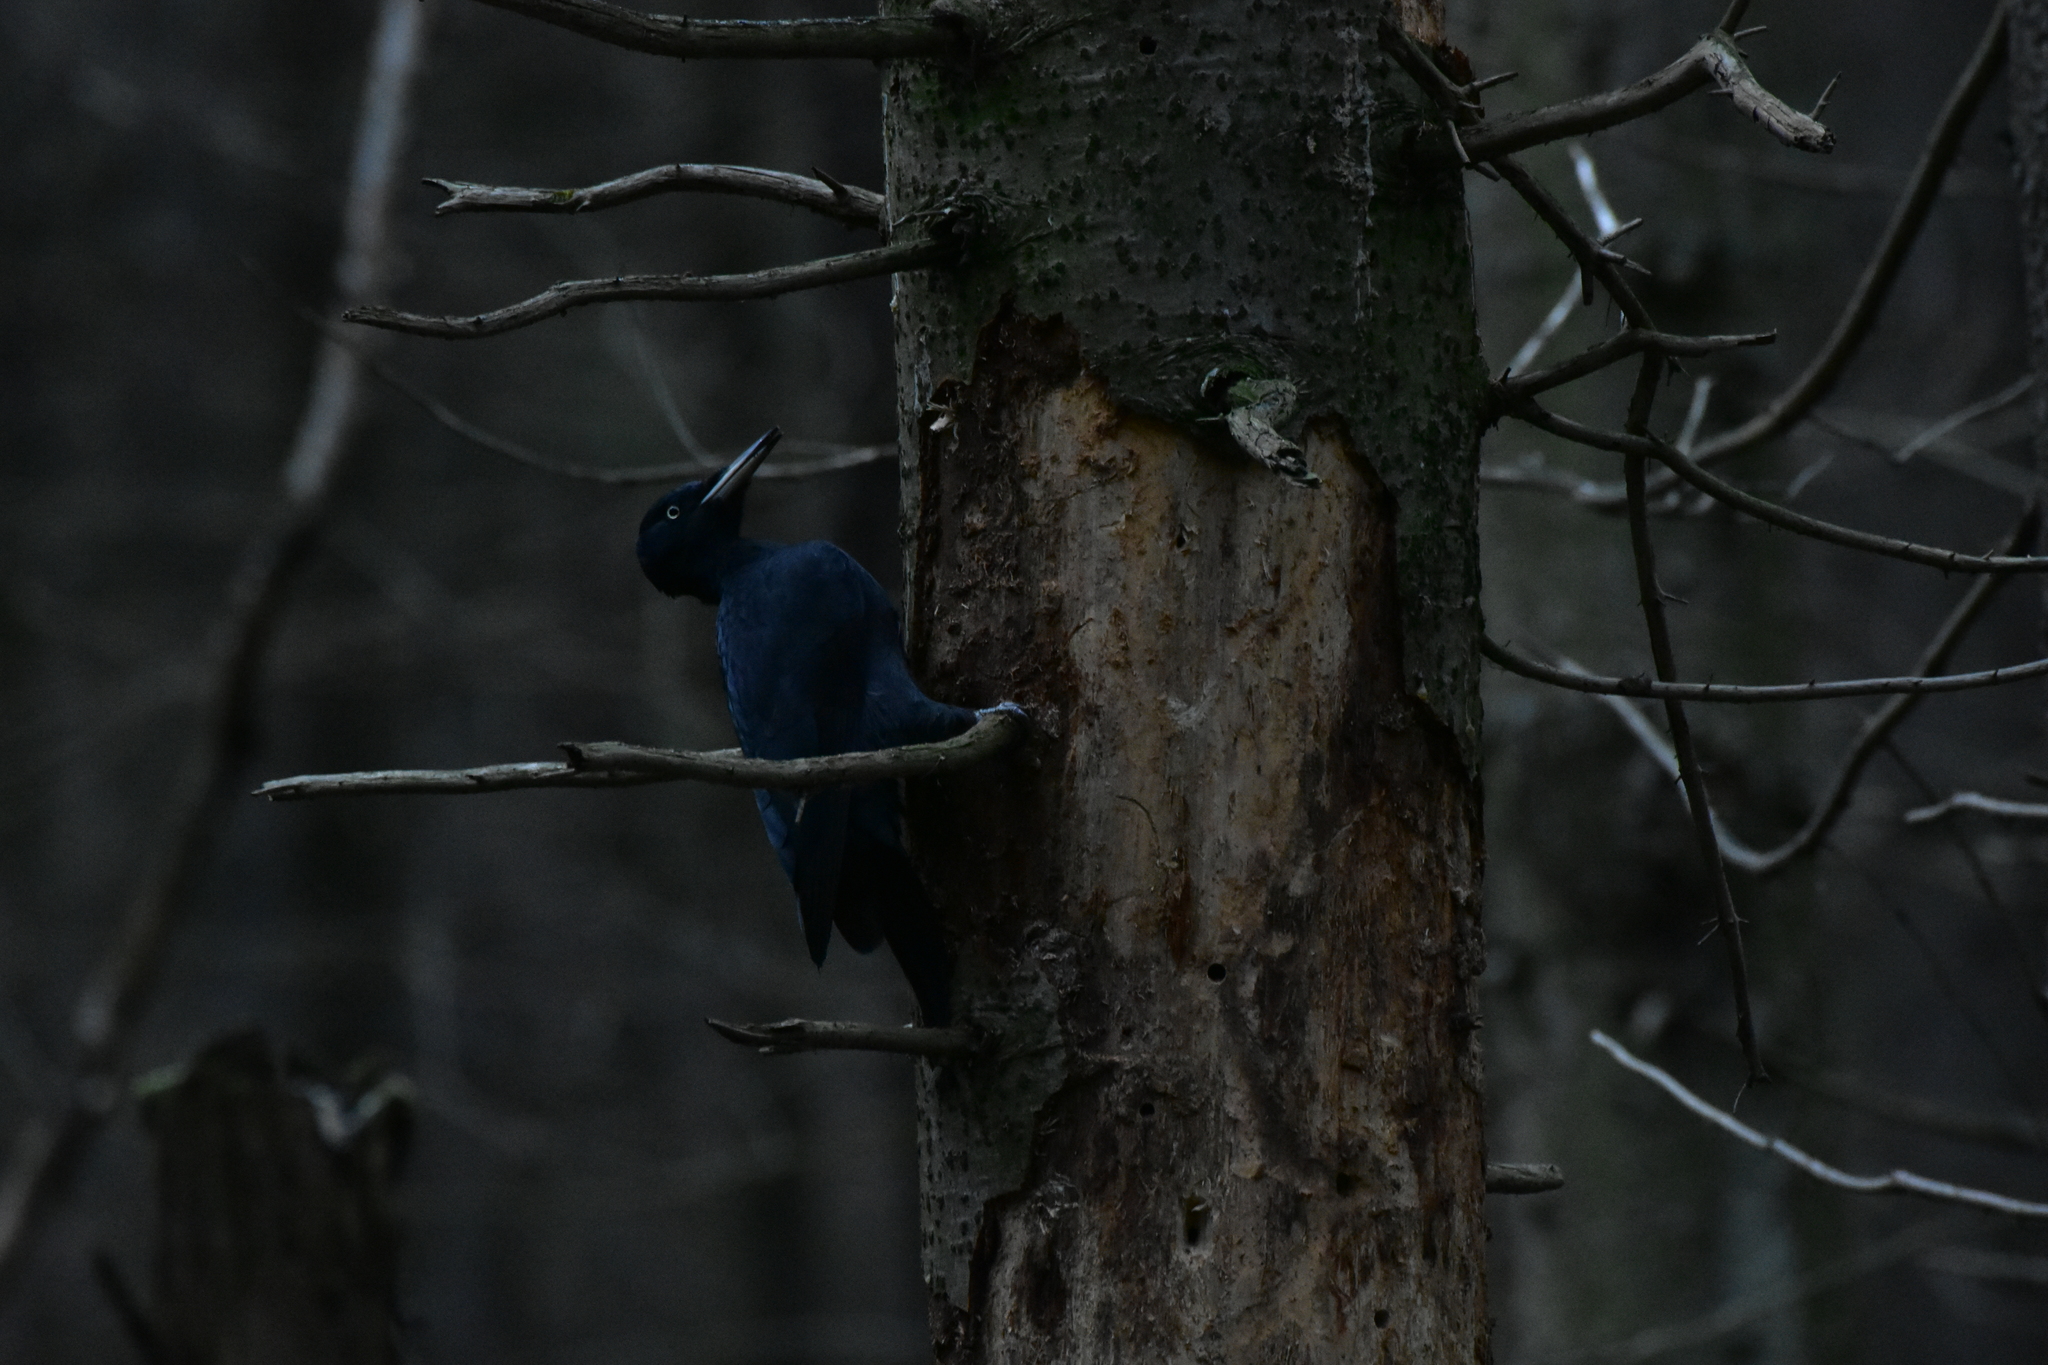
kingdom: Animalia
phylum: Chordata
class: Aves
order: Piciformes
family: Picidae
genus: Dryocopus
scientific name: Dryocopus martius
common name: Black woodpecker
